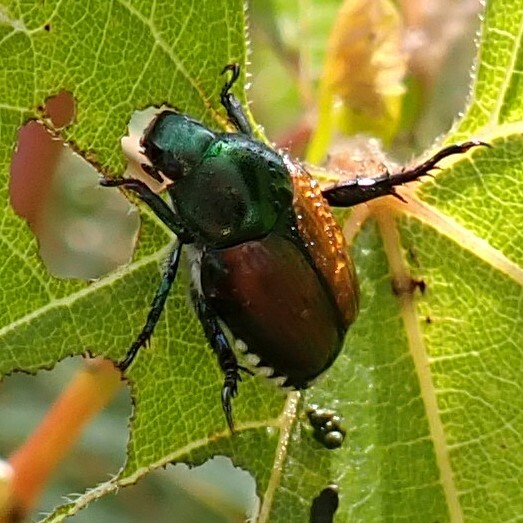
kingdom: Animalia
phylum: Arthropoda
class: Insecta
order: Coleoptera
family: Scarabaeidae
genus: Popillia
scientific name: Popillia japonica
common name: Japanese beetle
